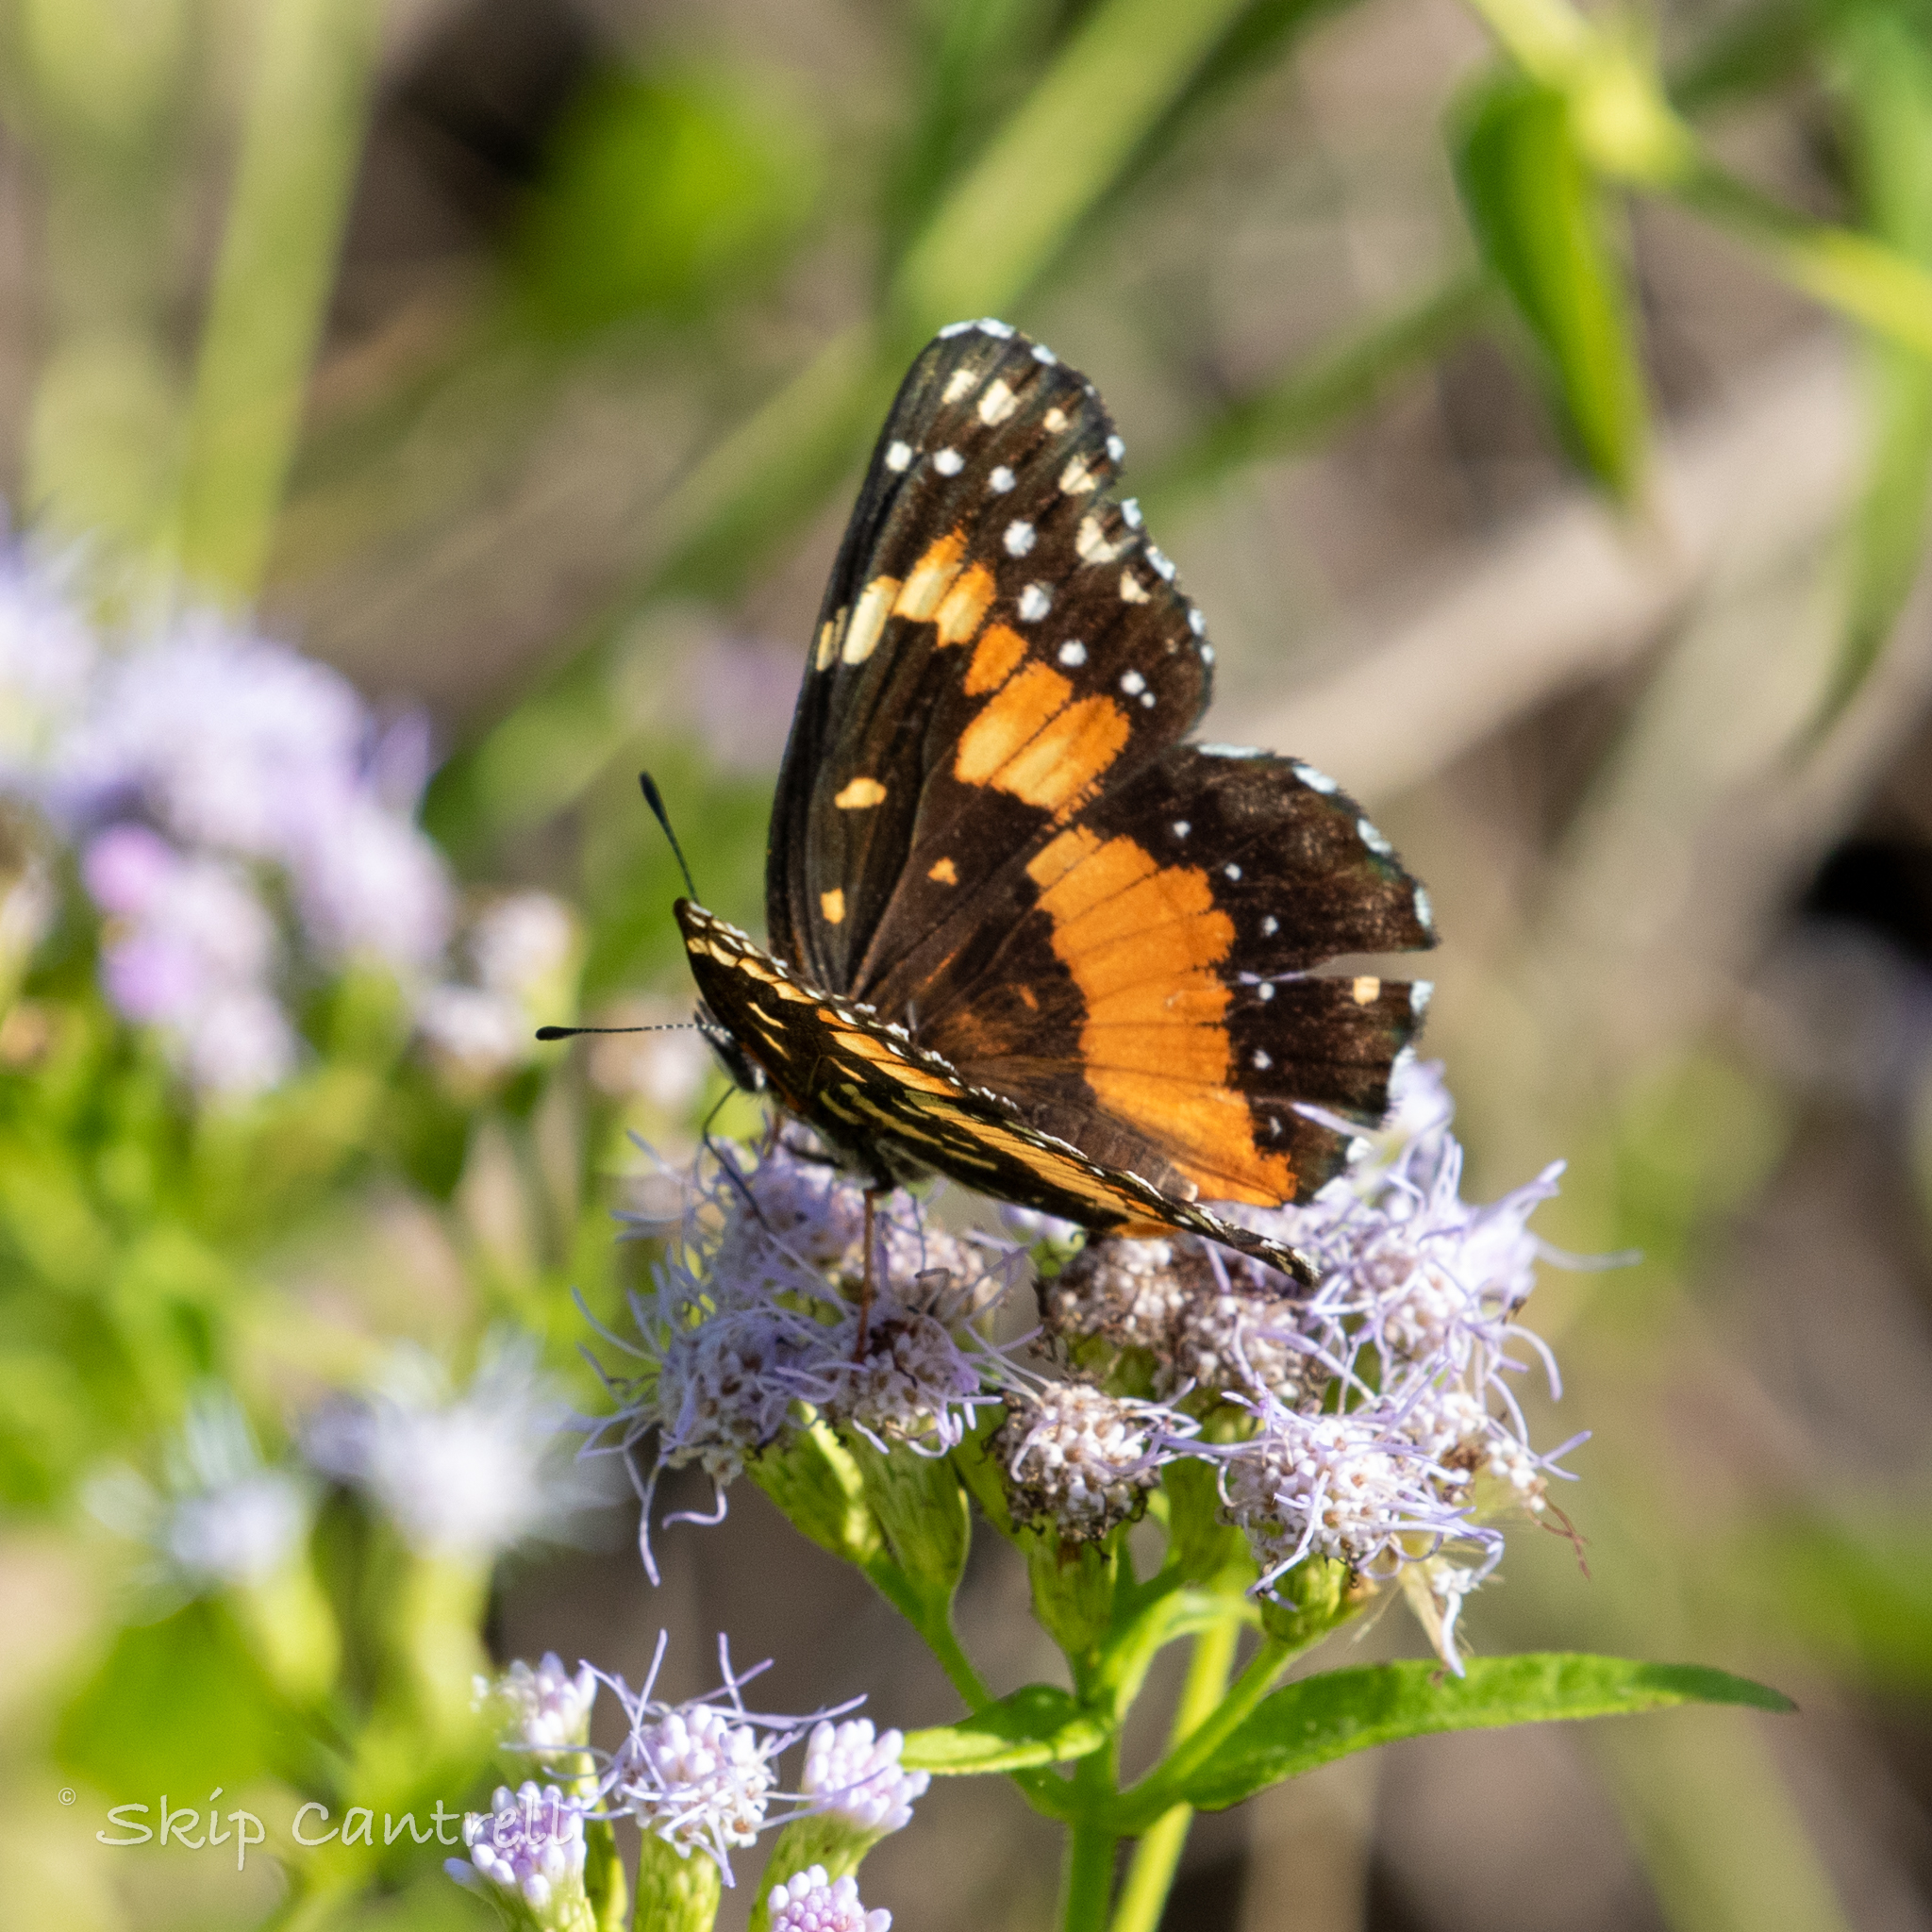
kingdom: Animalia
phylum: Arthropoda
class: Insecta
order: Lepidoptera
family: Nymphalidae
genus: Chlosyne
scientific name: Chlosyne lacinia
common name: Bordered patch
